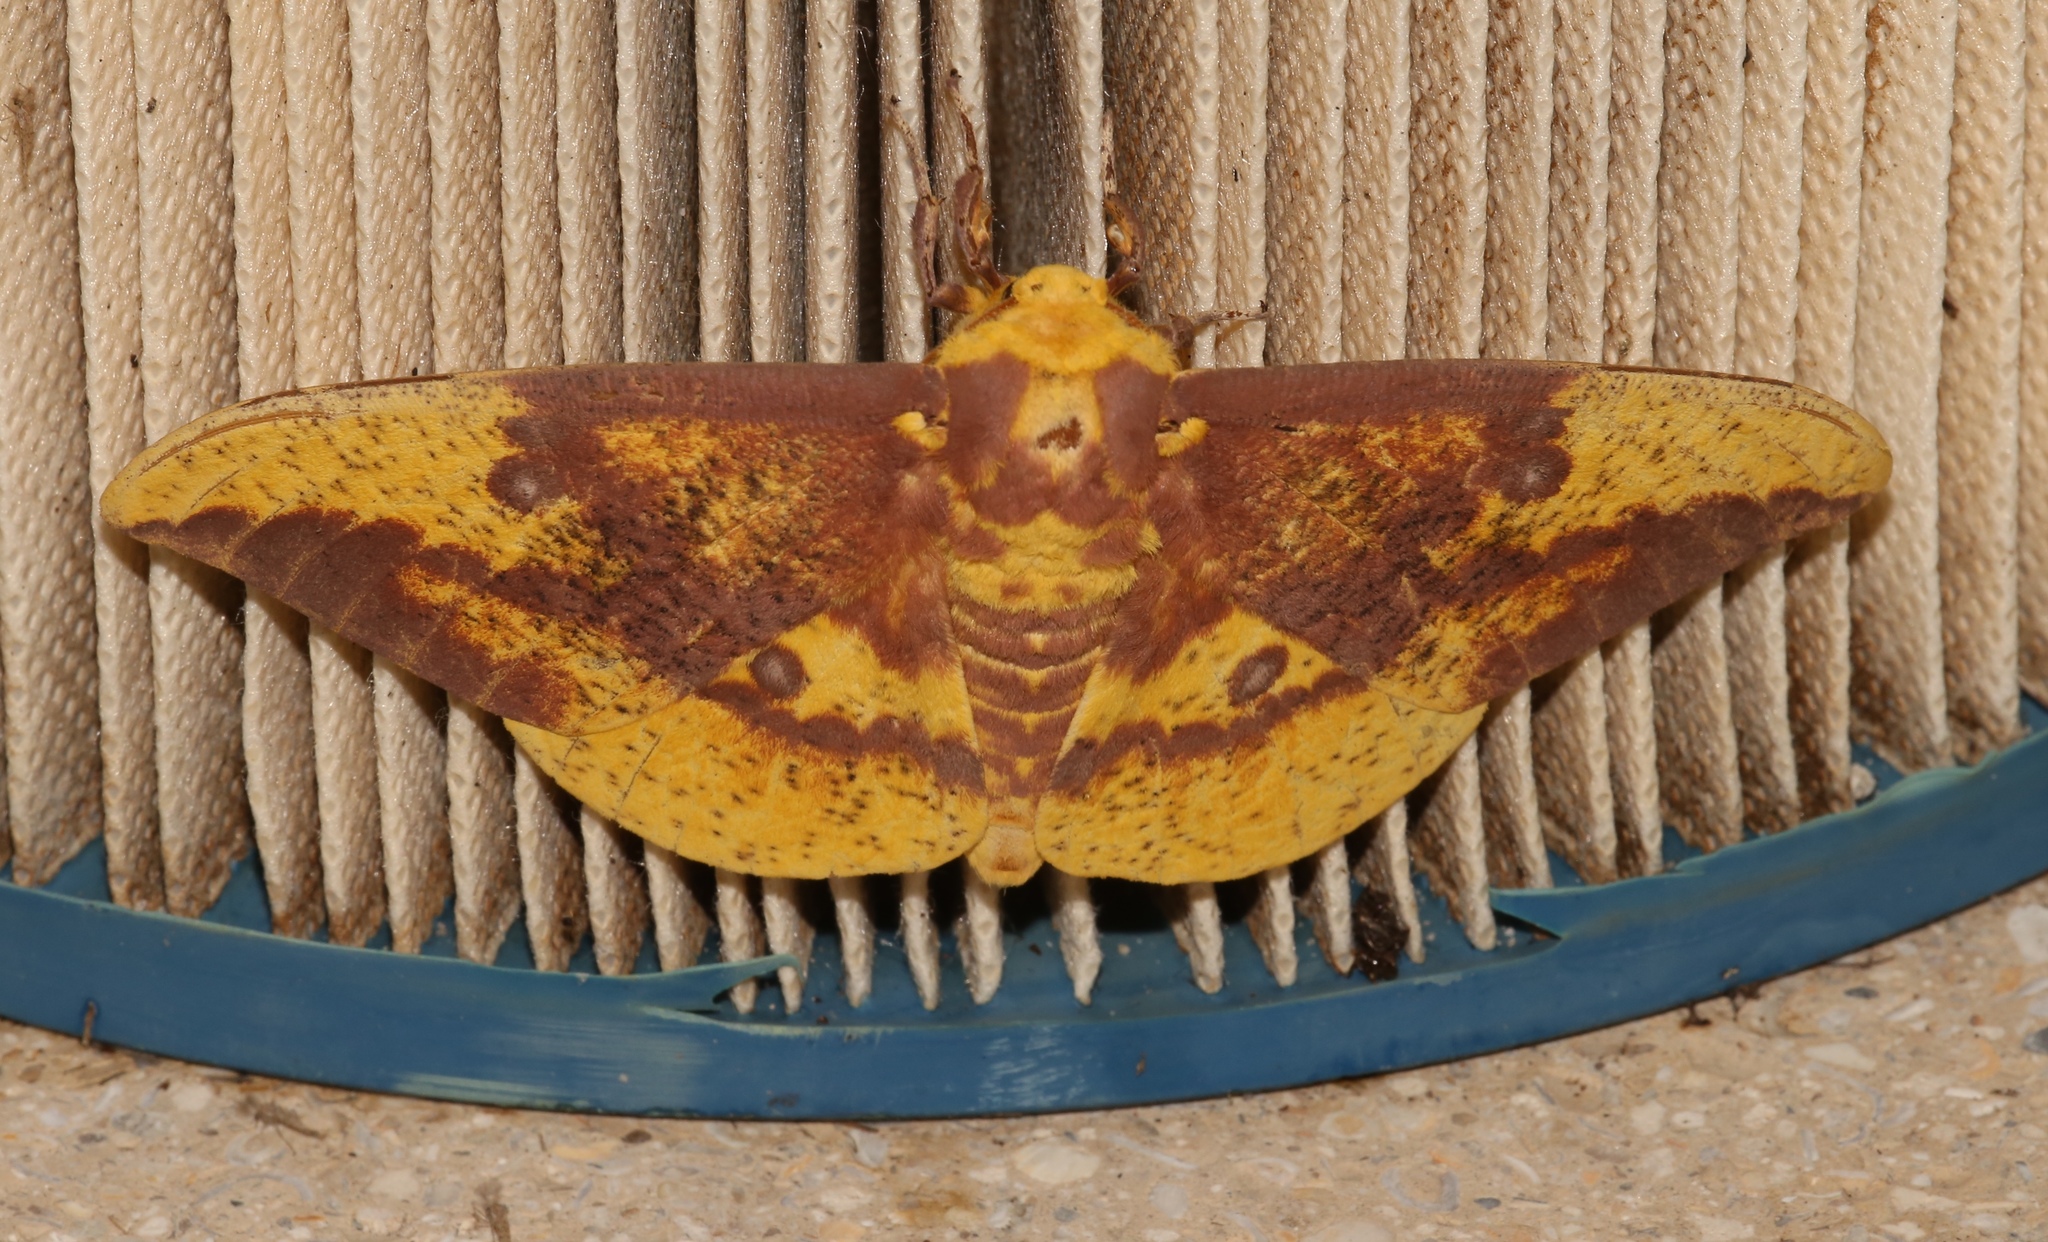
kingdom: Animalia
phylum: Arthropoda
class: Insecta
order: Lepidoptera
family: Saturniidae
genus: Eacles
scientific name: Eacles imperialis
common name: Imperial moth
